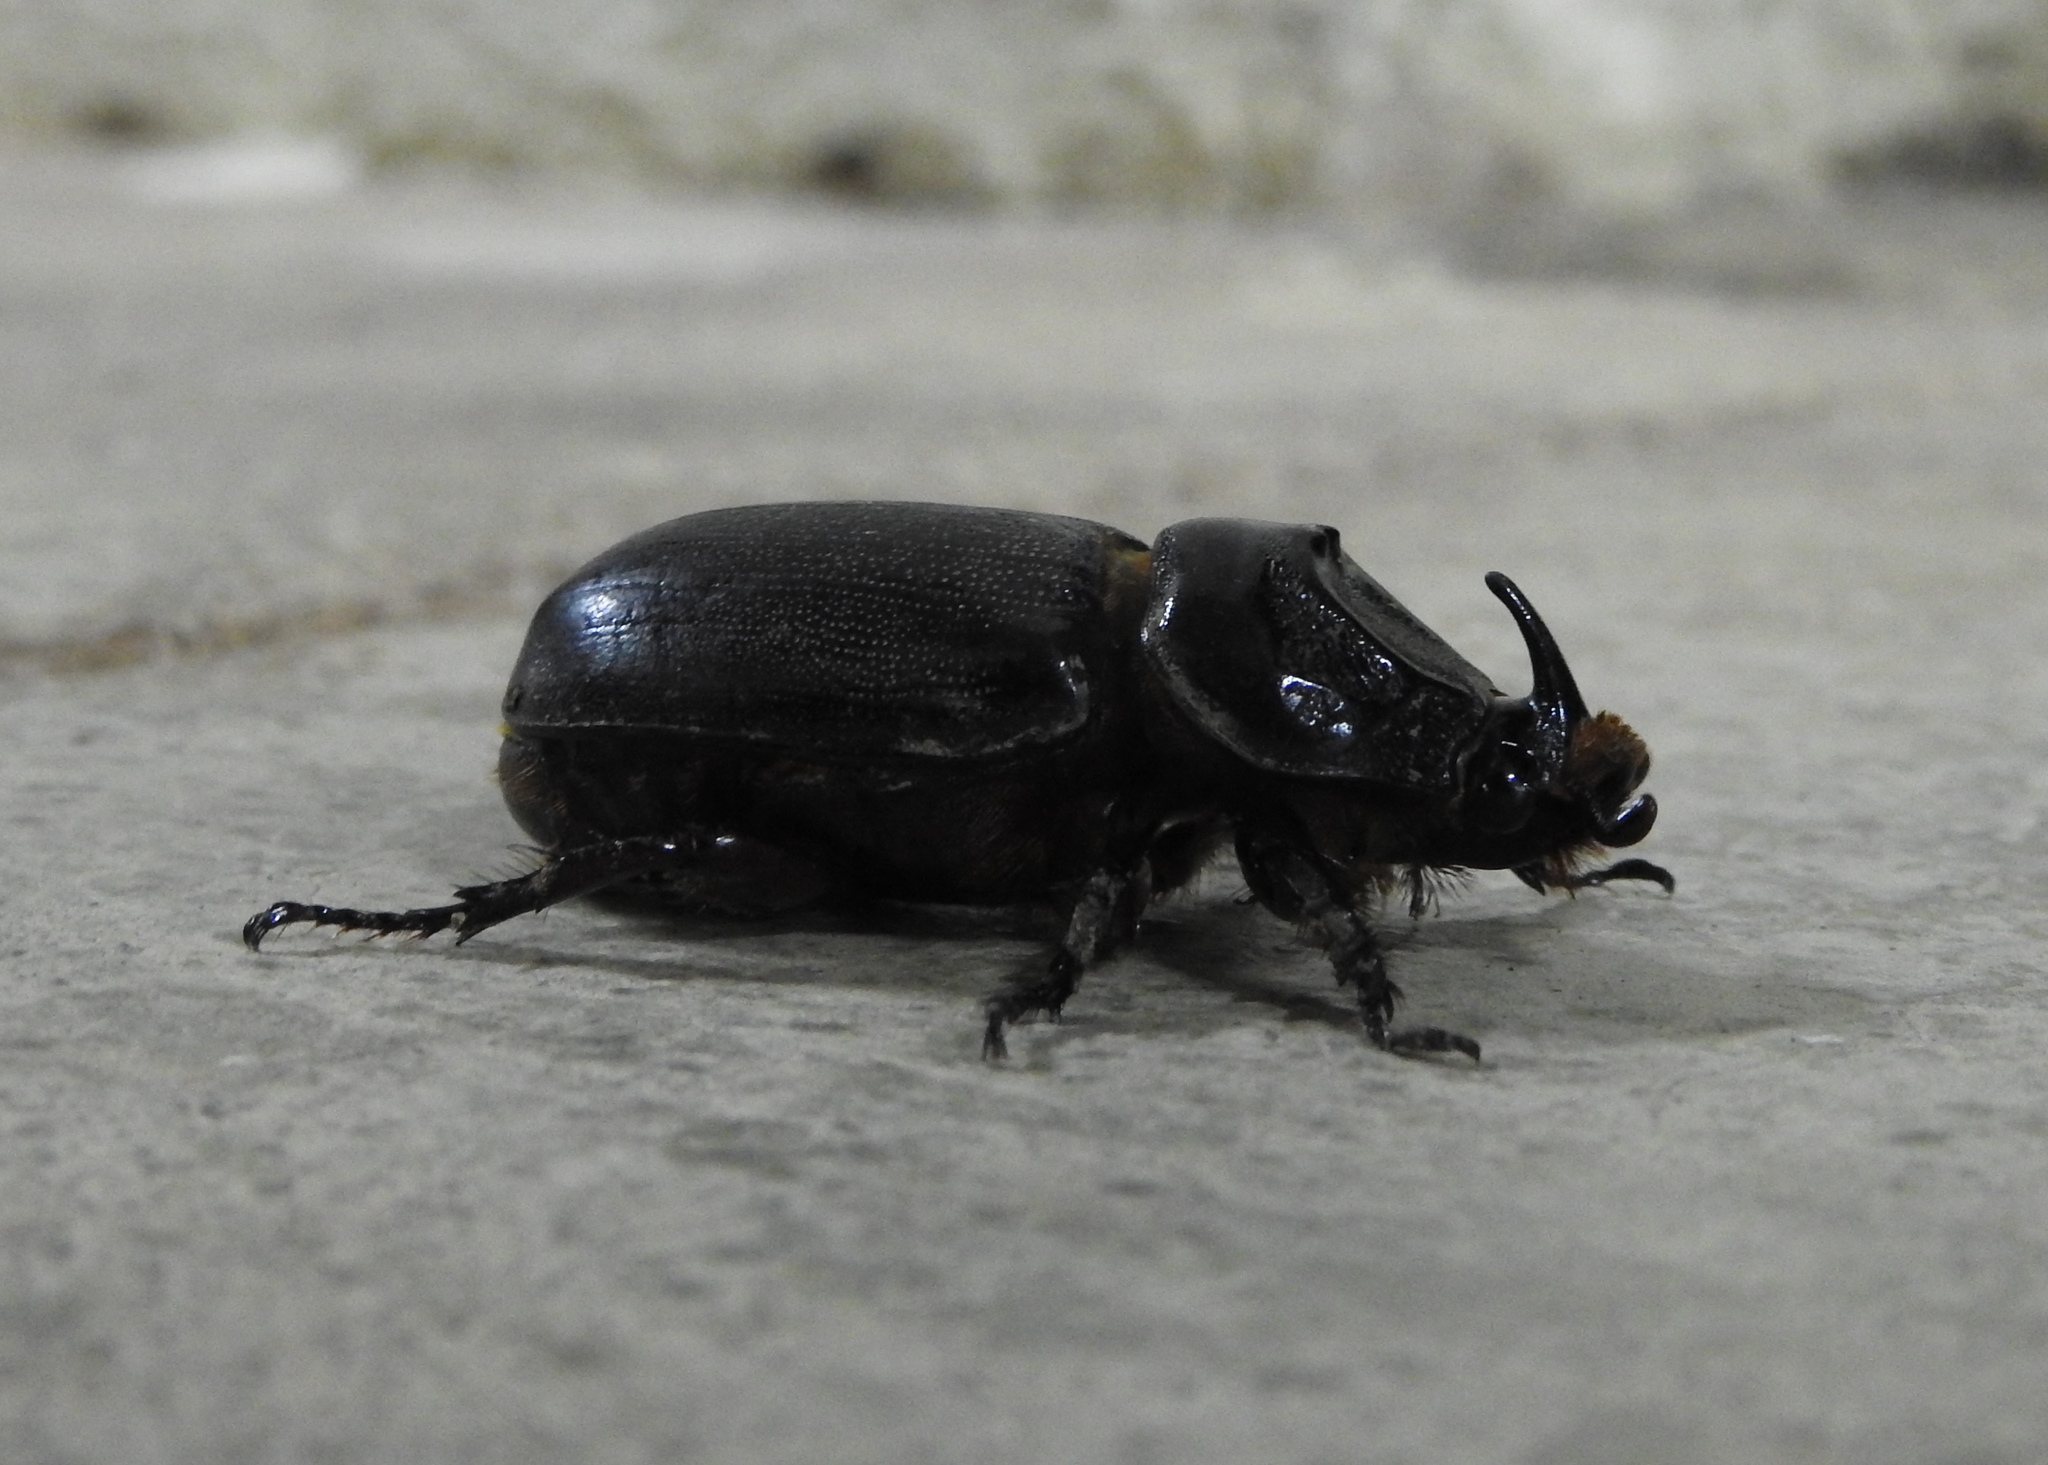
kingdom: Animalia
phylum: Arthropoda
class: Insecta
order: Coleoptera
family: Scarabaeidae
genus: Oryctes
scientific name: Oryctes rhinoceros
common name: Coconut rhinoceros beetle
